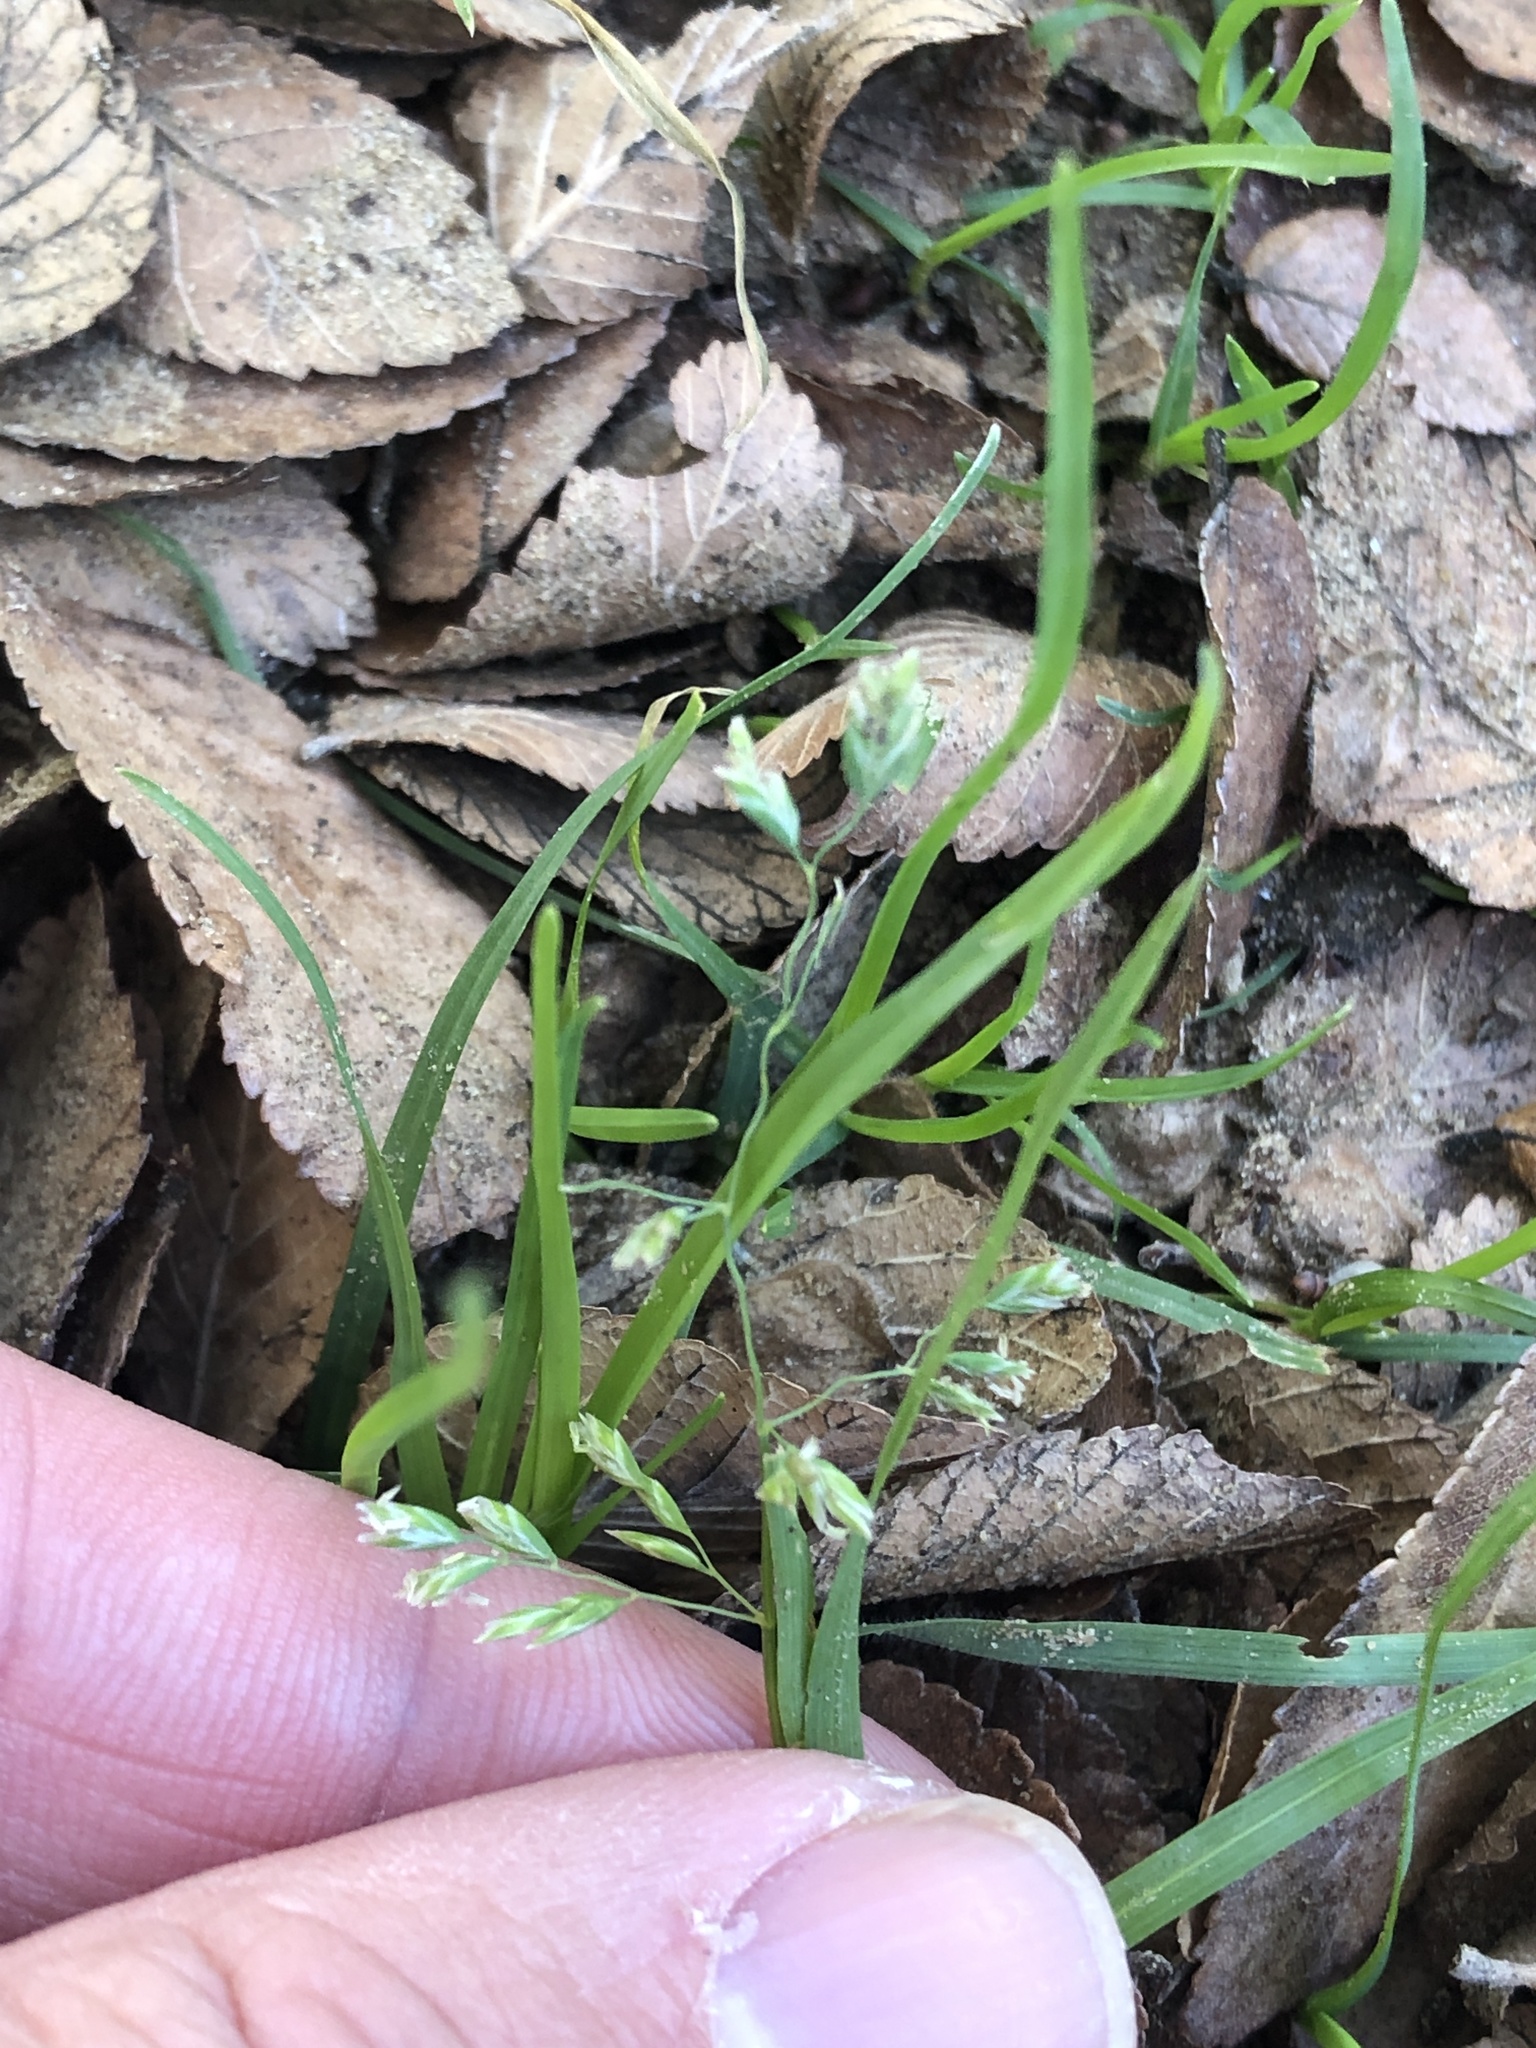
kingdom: Plantae
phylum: Tracheophyta
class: Liliopsida
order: Poales
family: Poaceae
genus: Poa
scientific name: Poa annua
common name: Annual bluegrass
